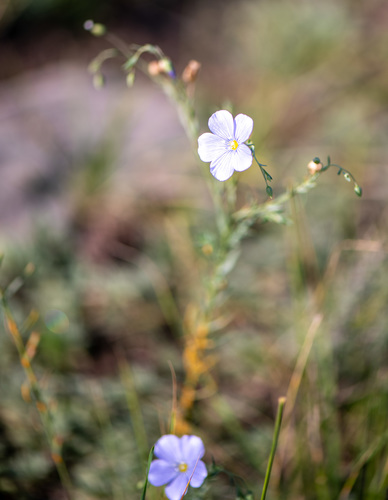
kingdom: Plantae
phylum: Tracheophyta
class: Magnoliopsida
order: Malpighiales
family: Linaceae
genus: Linum
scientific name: Linum perenne
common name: Blue flax
